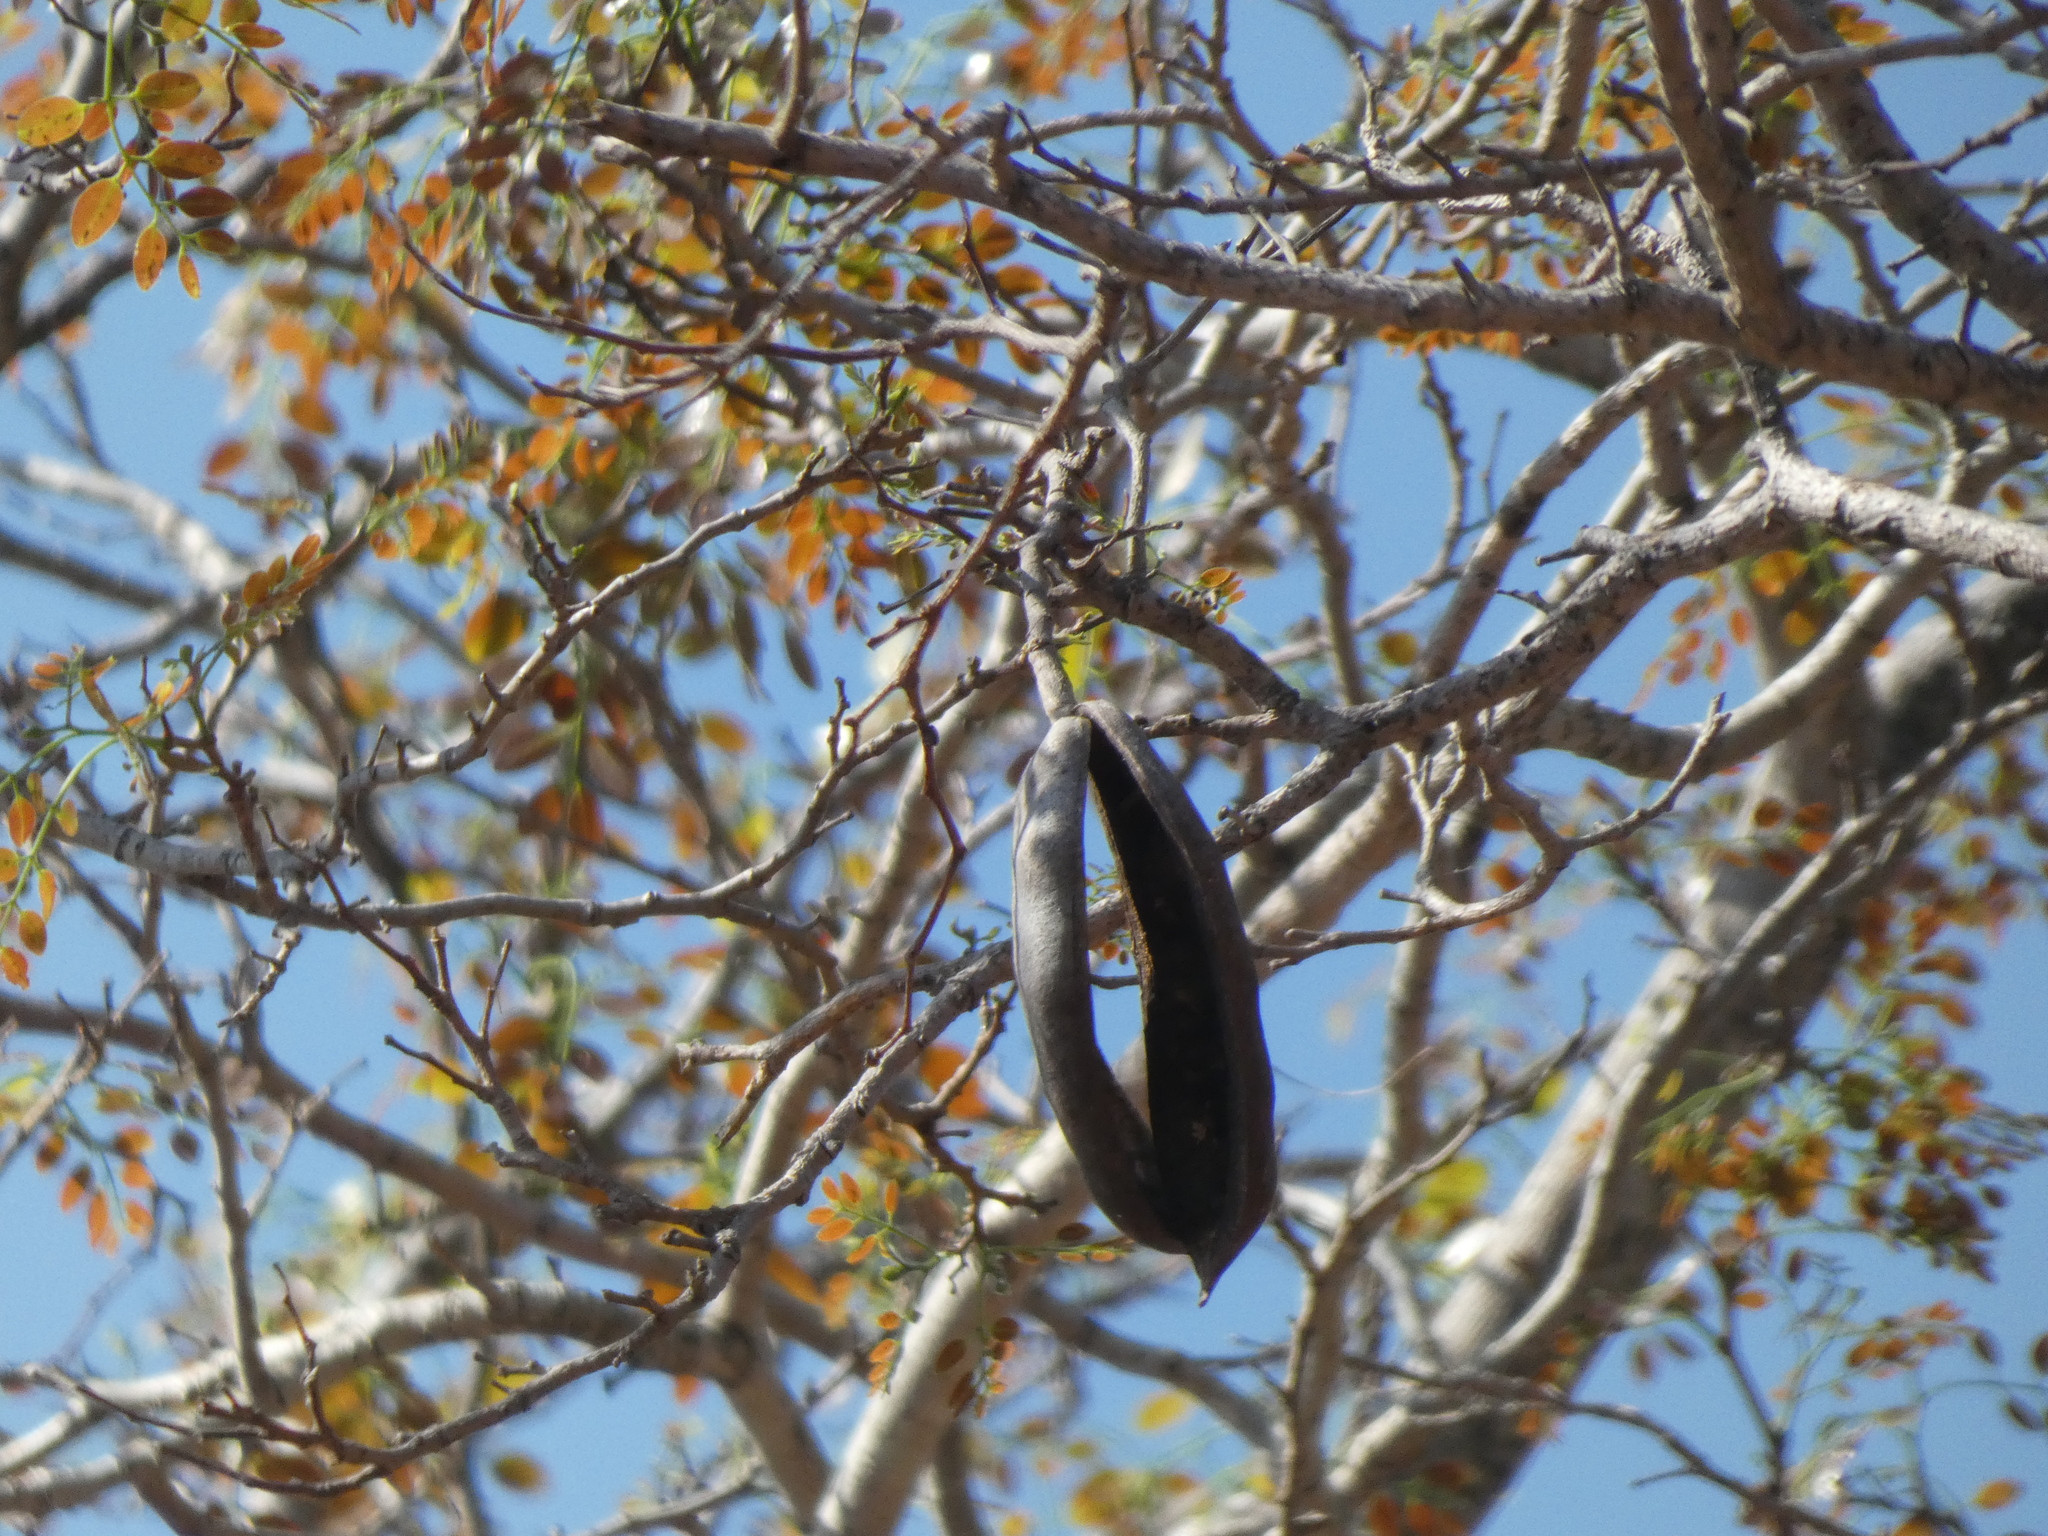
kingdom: Plantae
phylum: Tracheophyta
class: Magnoliopsida
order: Fabales
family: Fabaceae
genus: Afzelia
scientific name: Afzelia quanzensis
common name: Pod mahogany
